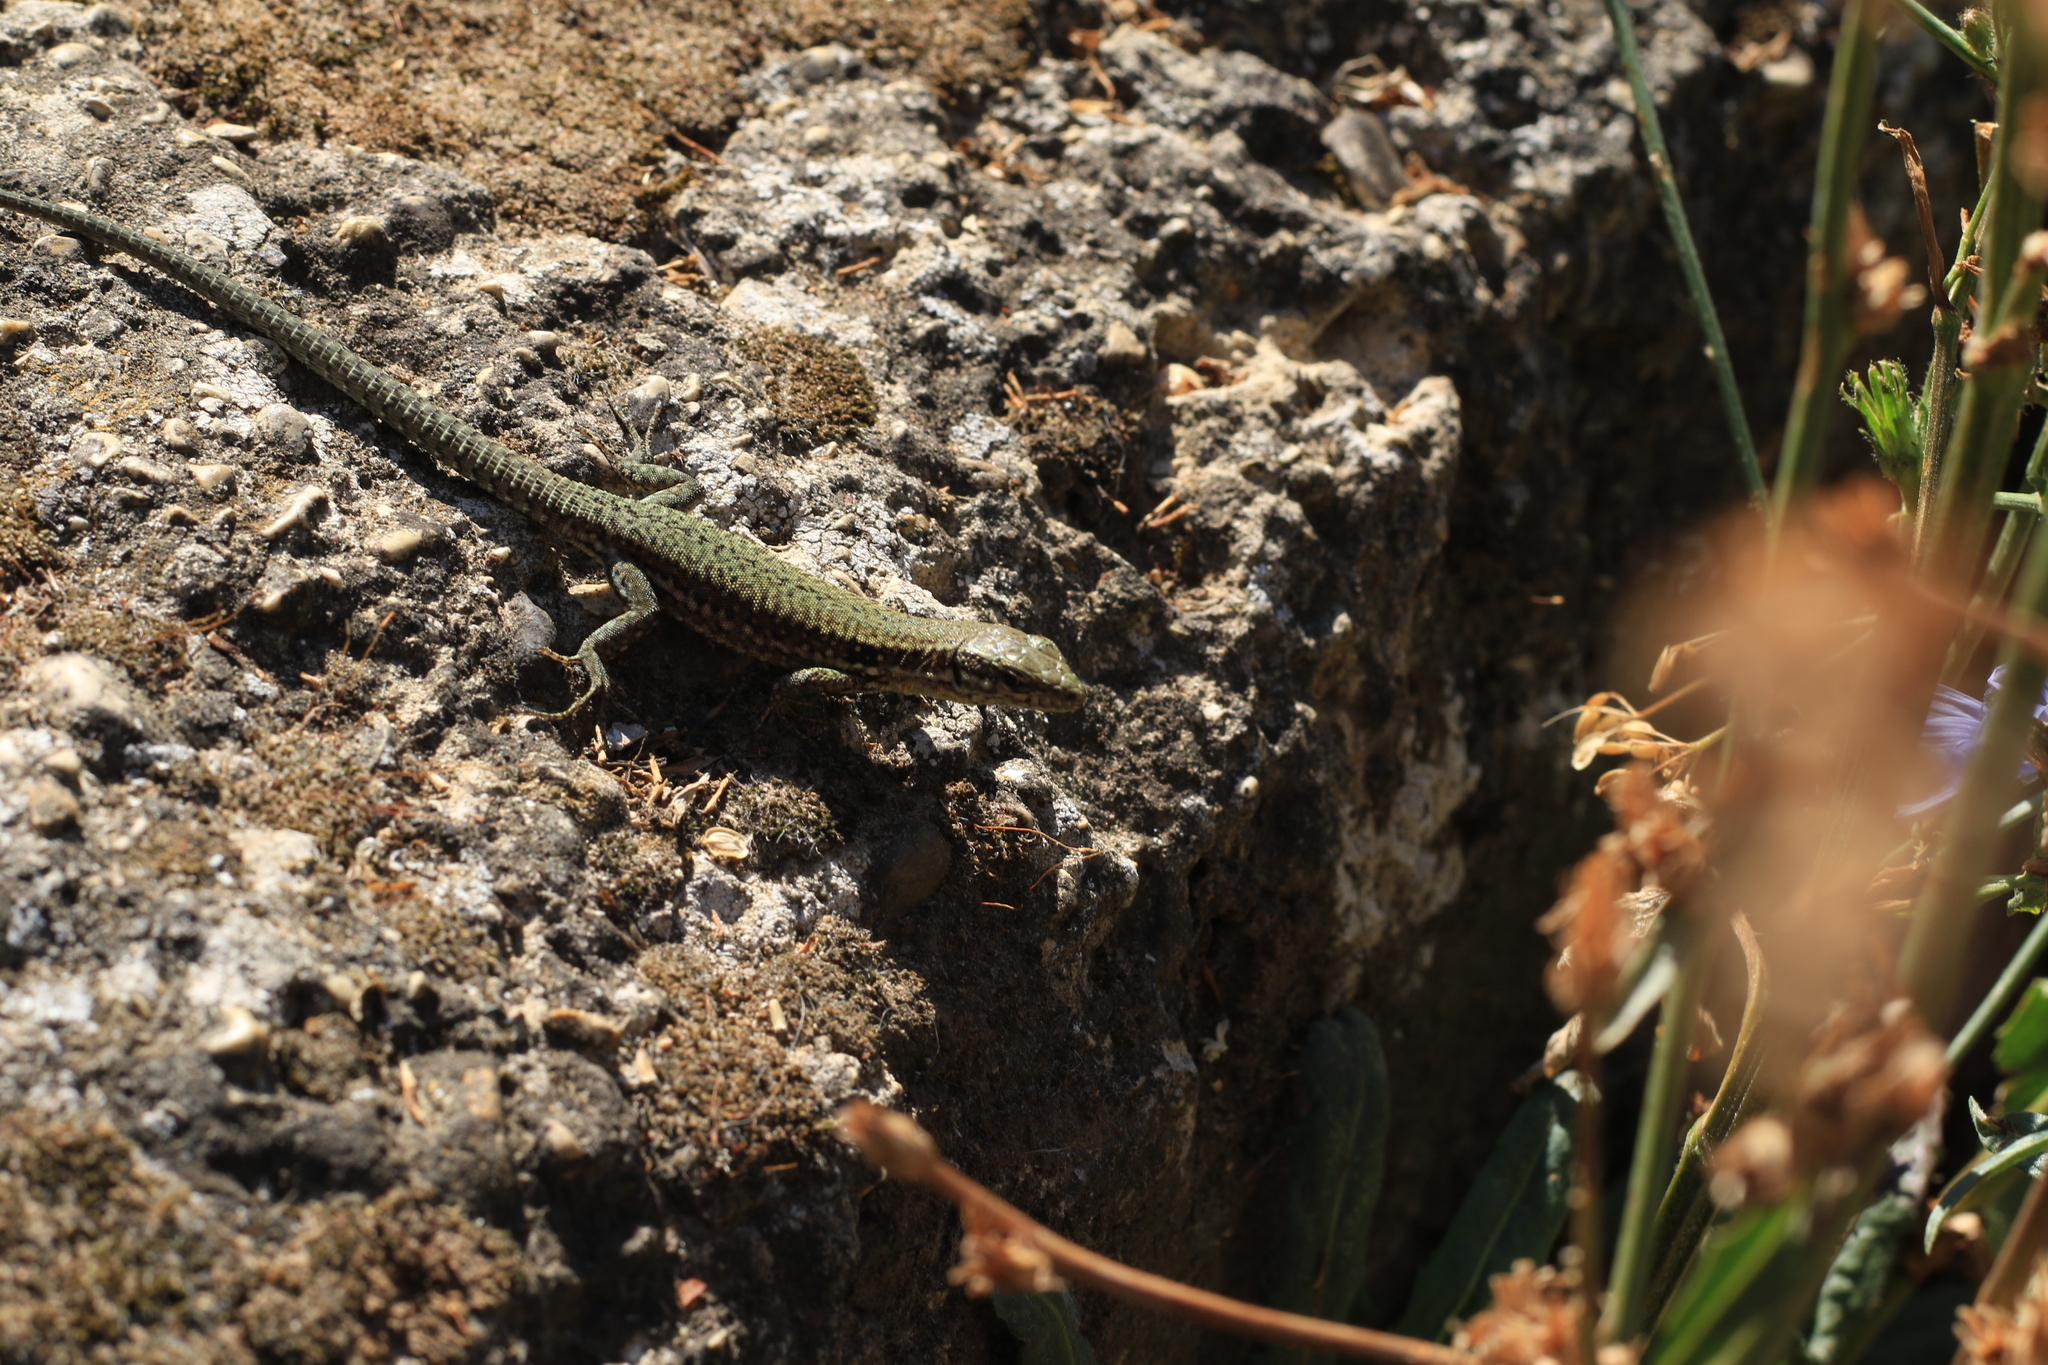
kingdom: Animalia
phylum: Chordata
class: Squamata
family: Lacertidae
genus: Podarcis
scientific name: Podarcis muralis
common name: Common wall lizard
